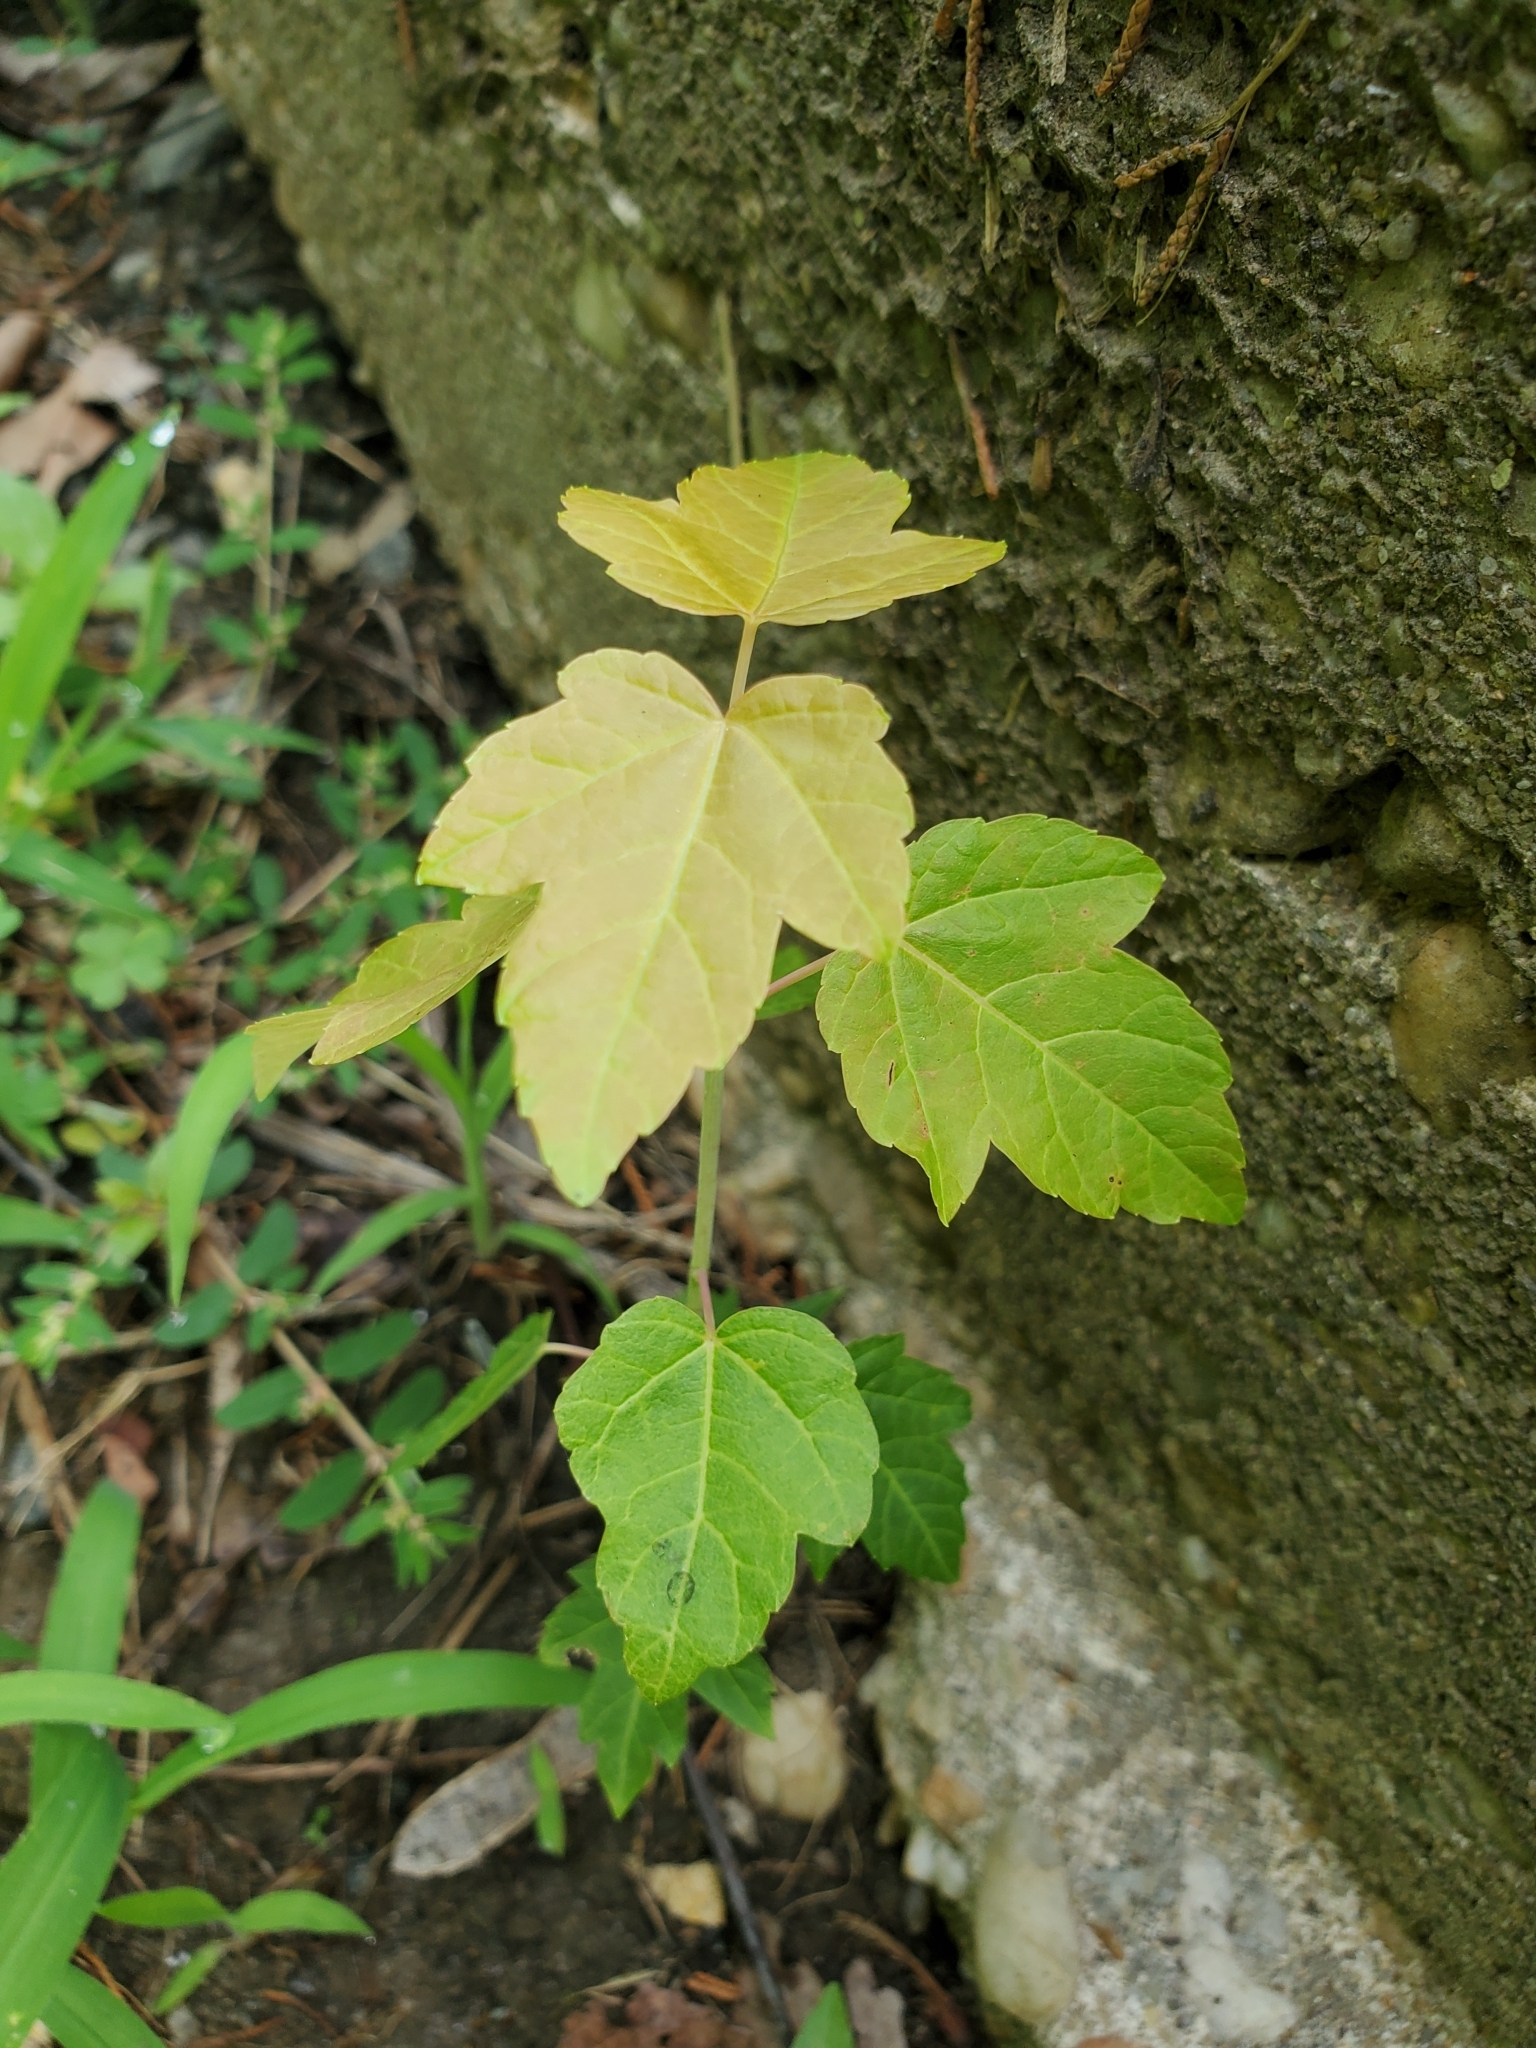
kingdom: Plantae
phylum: Tracheophyta
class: Magnoliopsida
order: Sapindales
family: Sapindaceae
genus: Acer
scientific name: Acer rubrum
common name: Red maple
